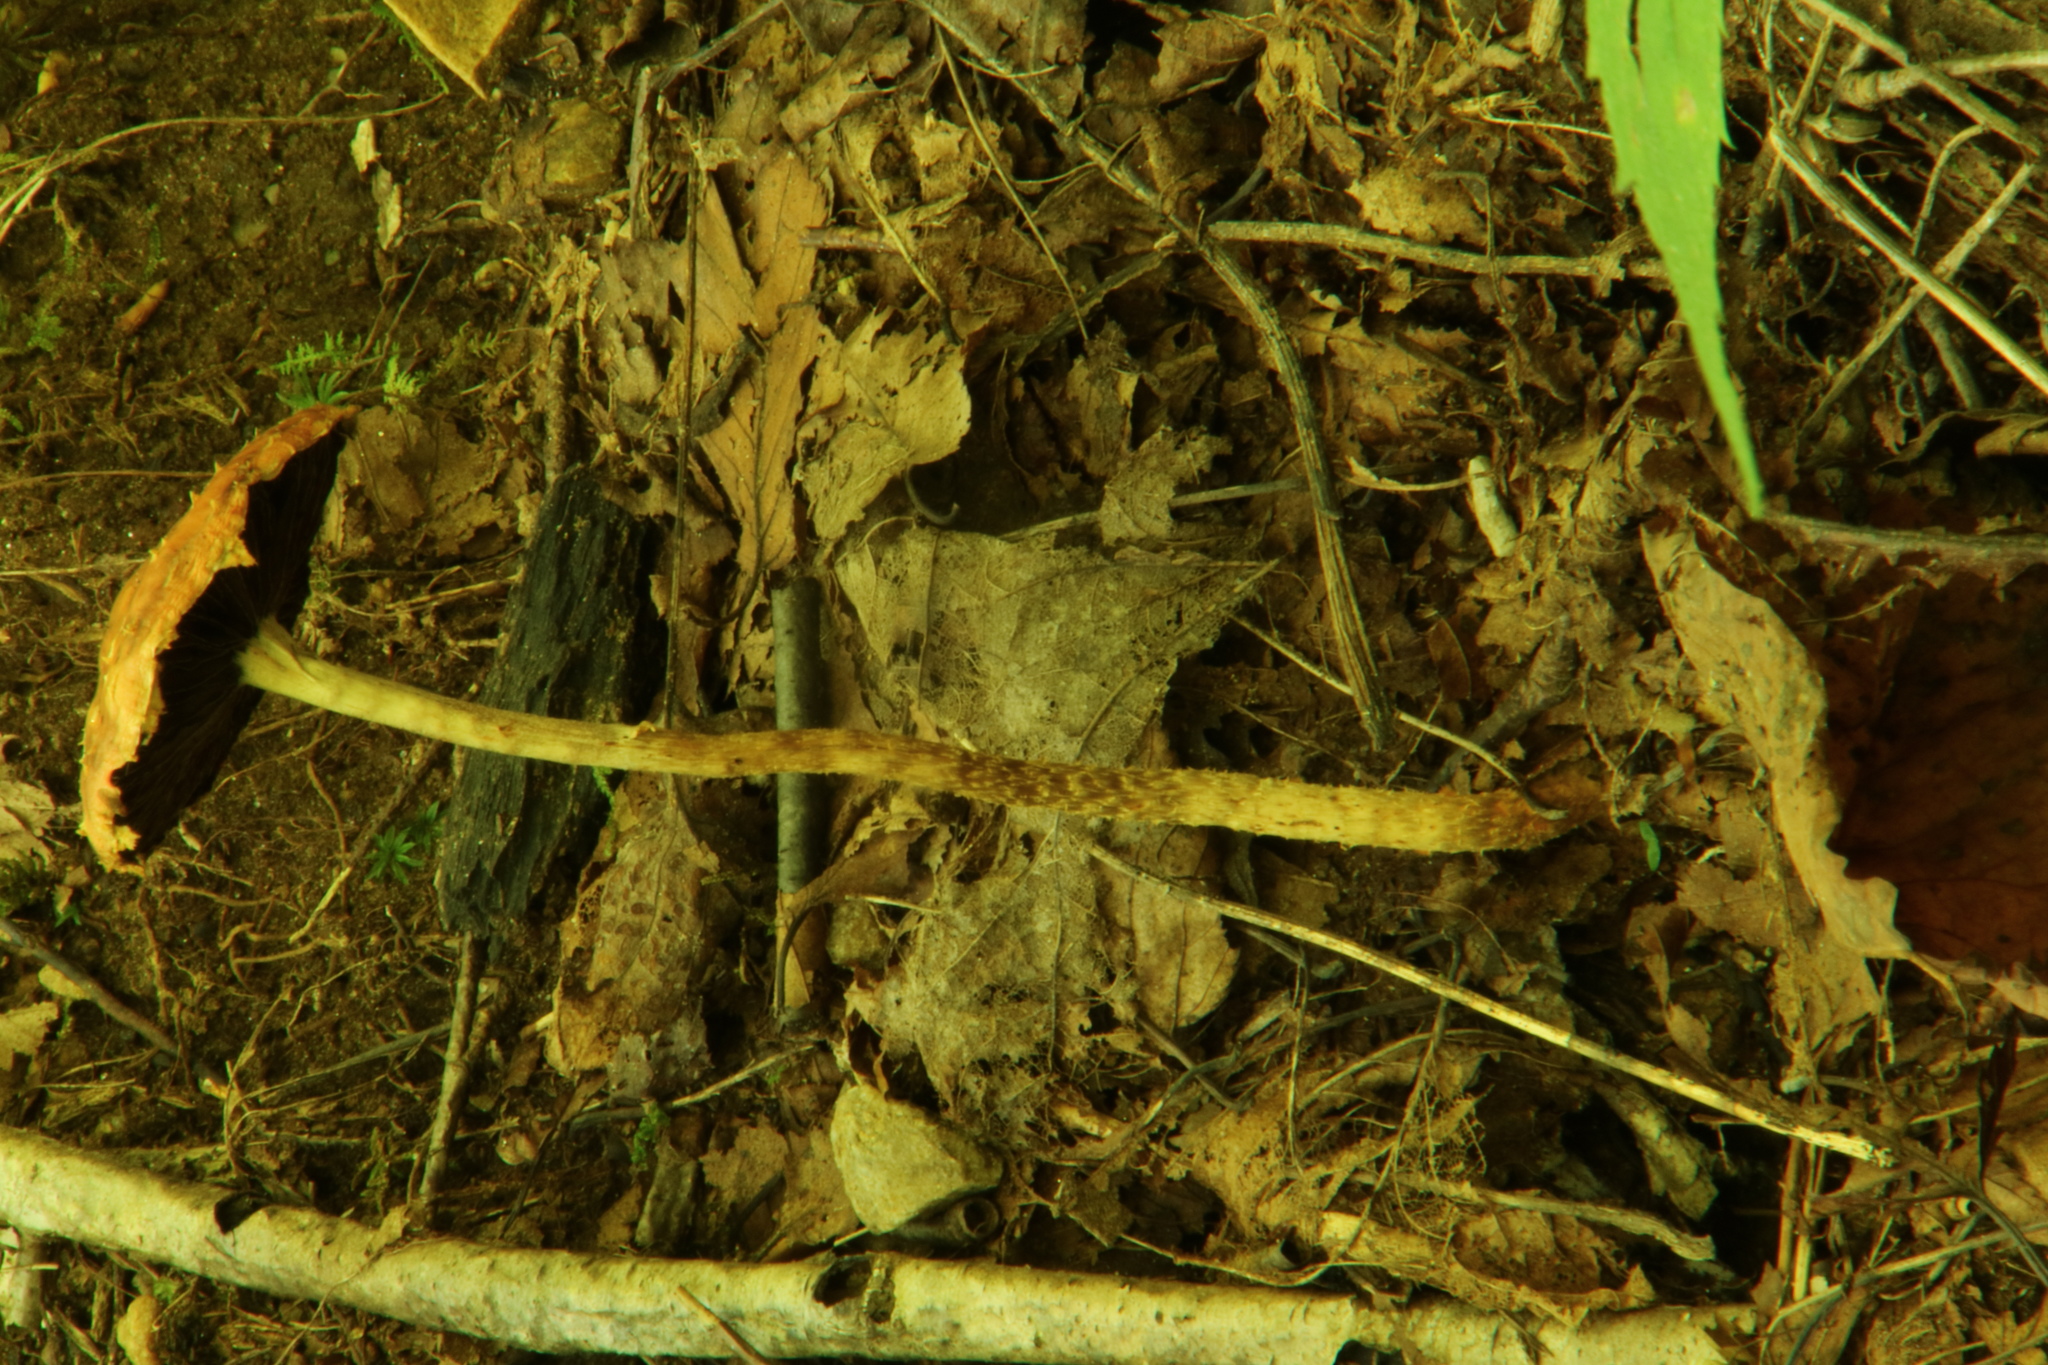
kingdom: Fungi
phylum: Basidiomycota
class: Agaricomycetes
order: Agaricales
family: Strophariaceae
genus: Leratiomyces
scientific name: Leratiomyces squamosus
